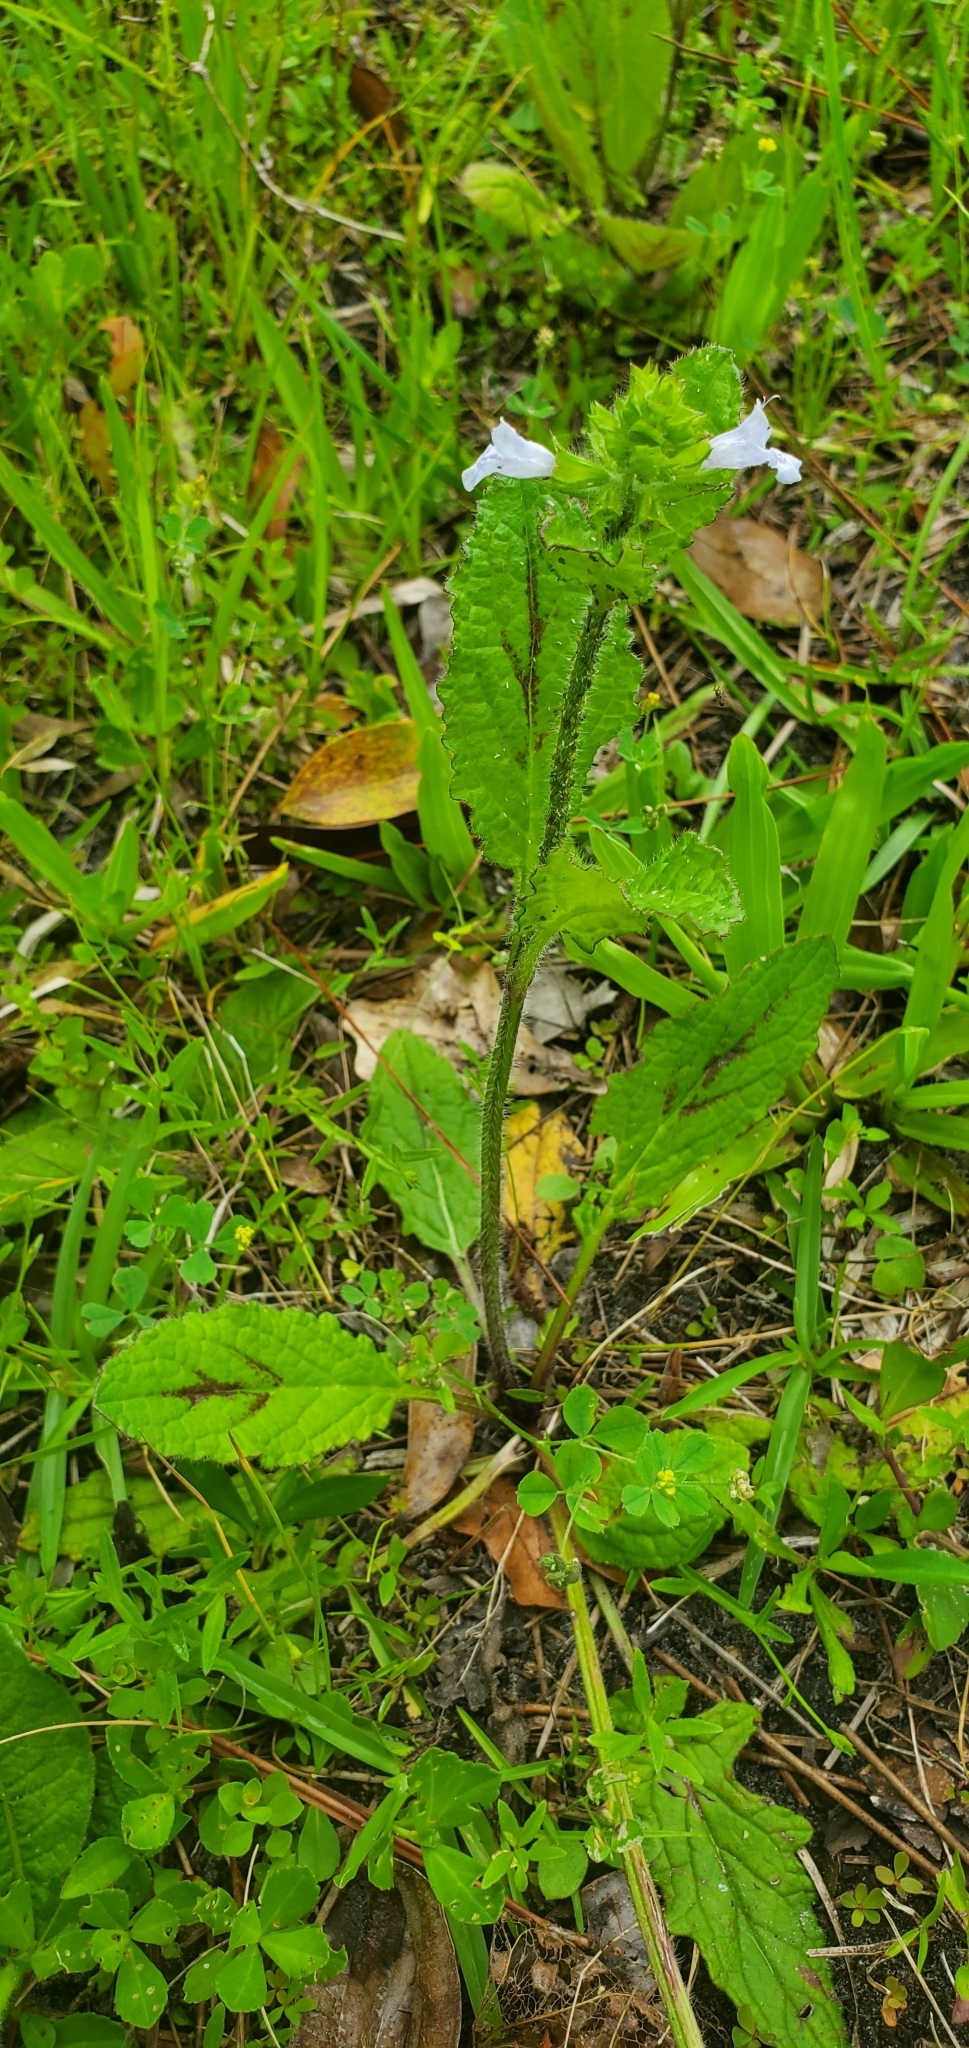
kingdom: Plantae
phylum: Tracheophyta
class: Magnoliopsida
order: Lamiales
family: Lamiaceae
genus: Salvia
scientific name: Salvia lyrata
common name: Cancerweed
